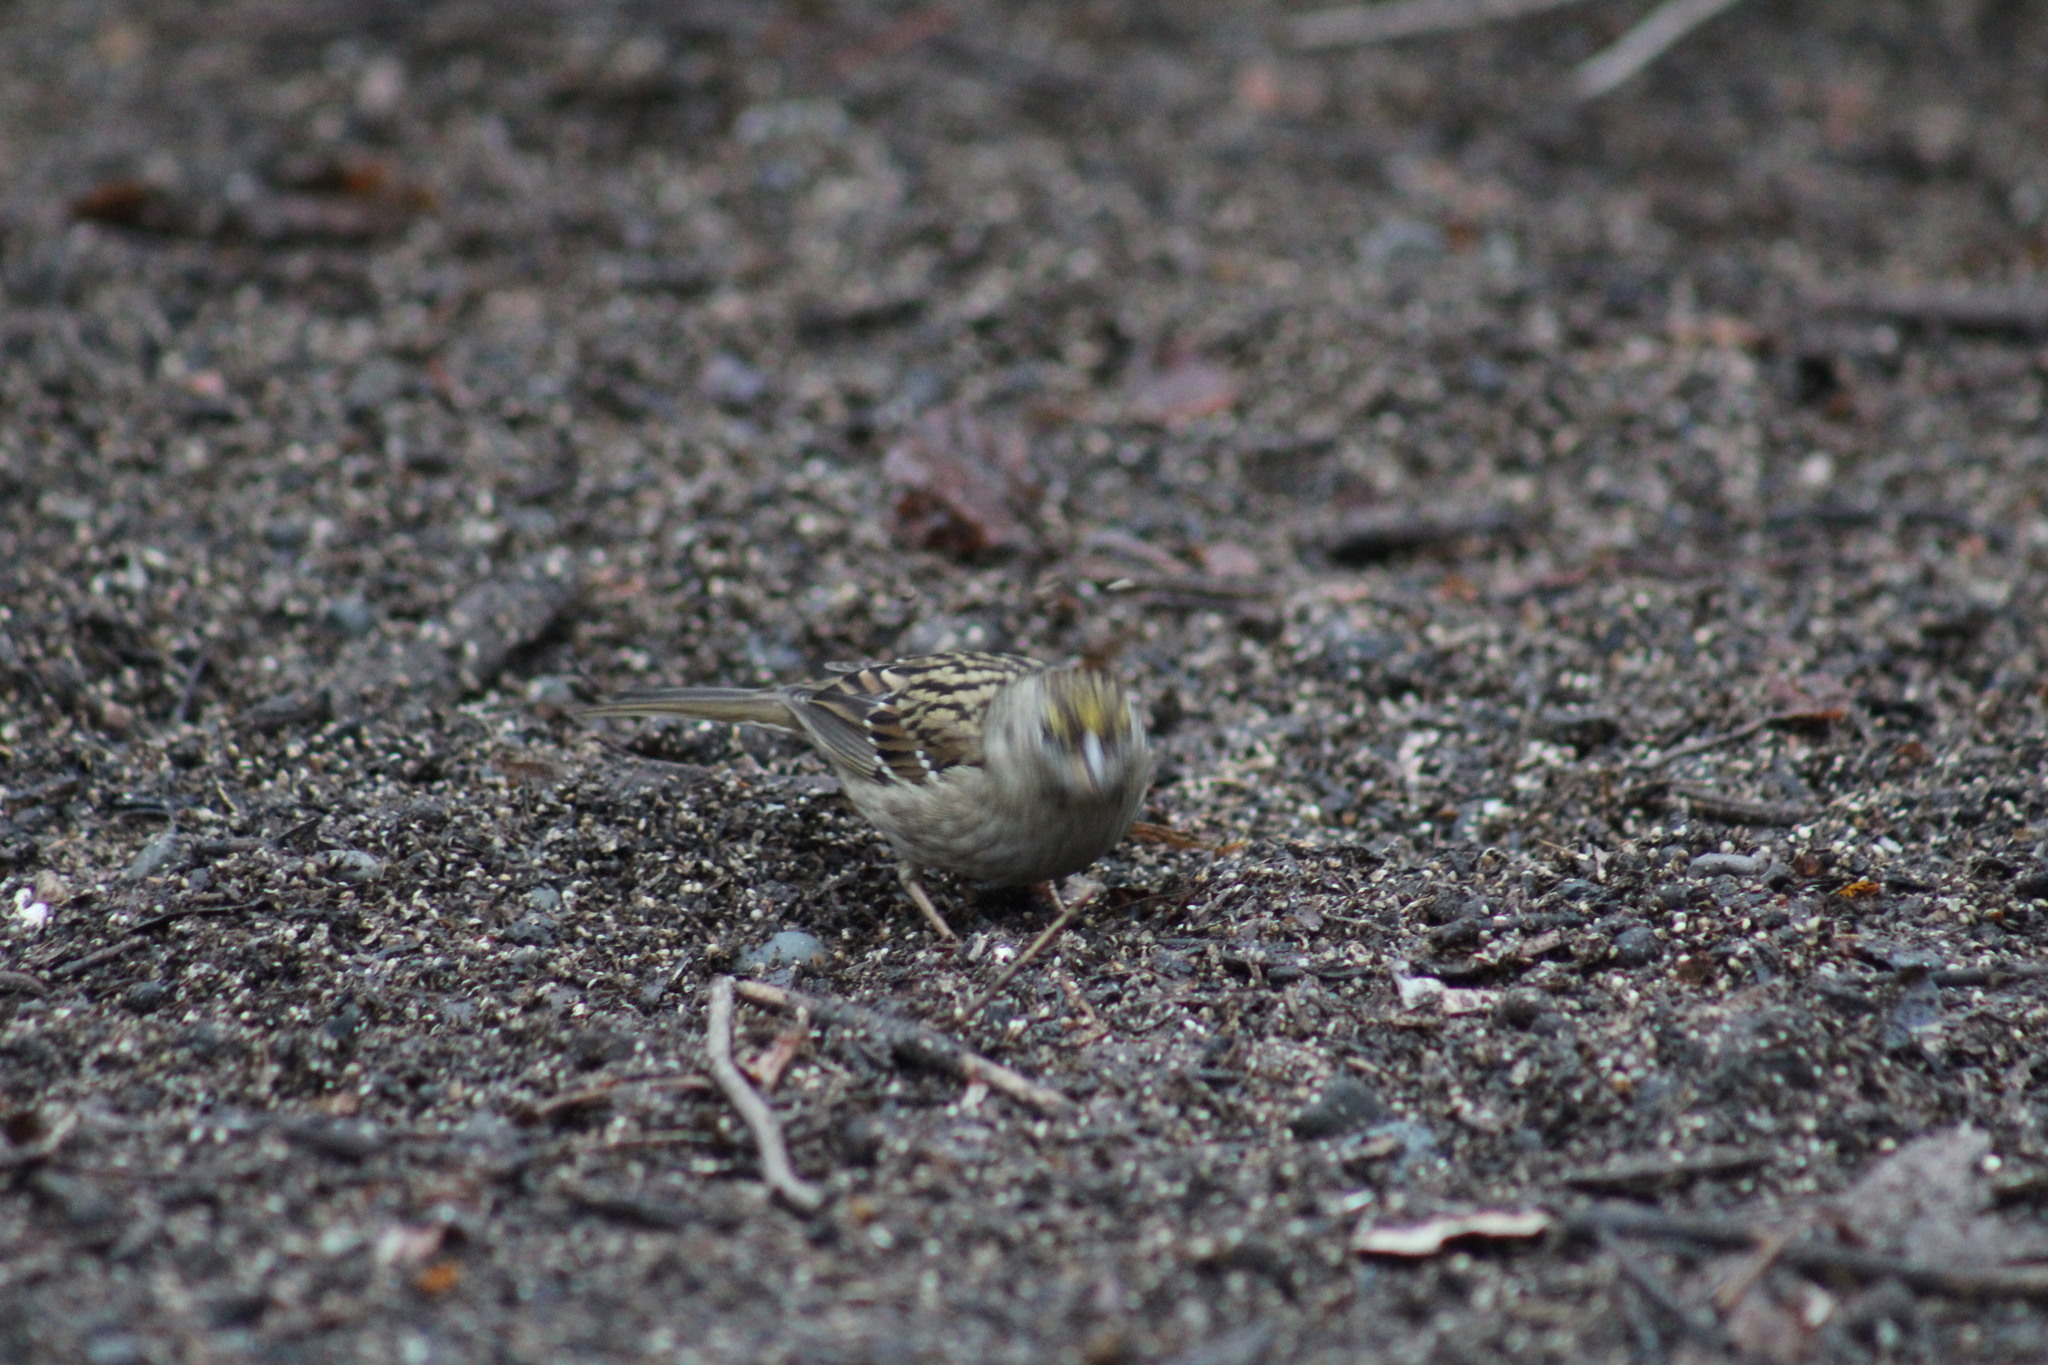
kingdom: Animalia
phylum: Chordata
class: Aves
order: Passeriformes
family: Passerellidae
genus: Zonotrichia
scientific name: Zonotrichia atricapilla
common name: Golden-crowned sparrow
